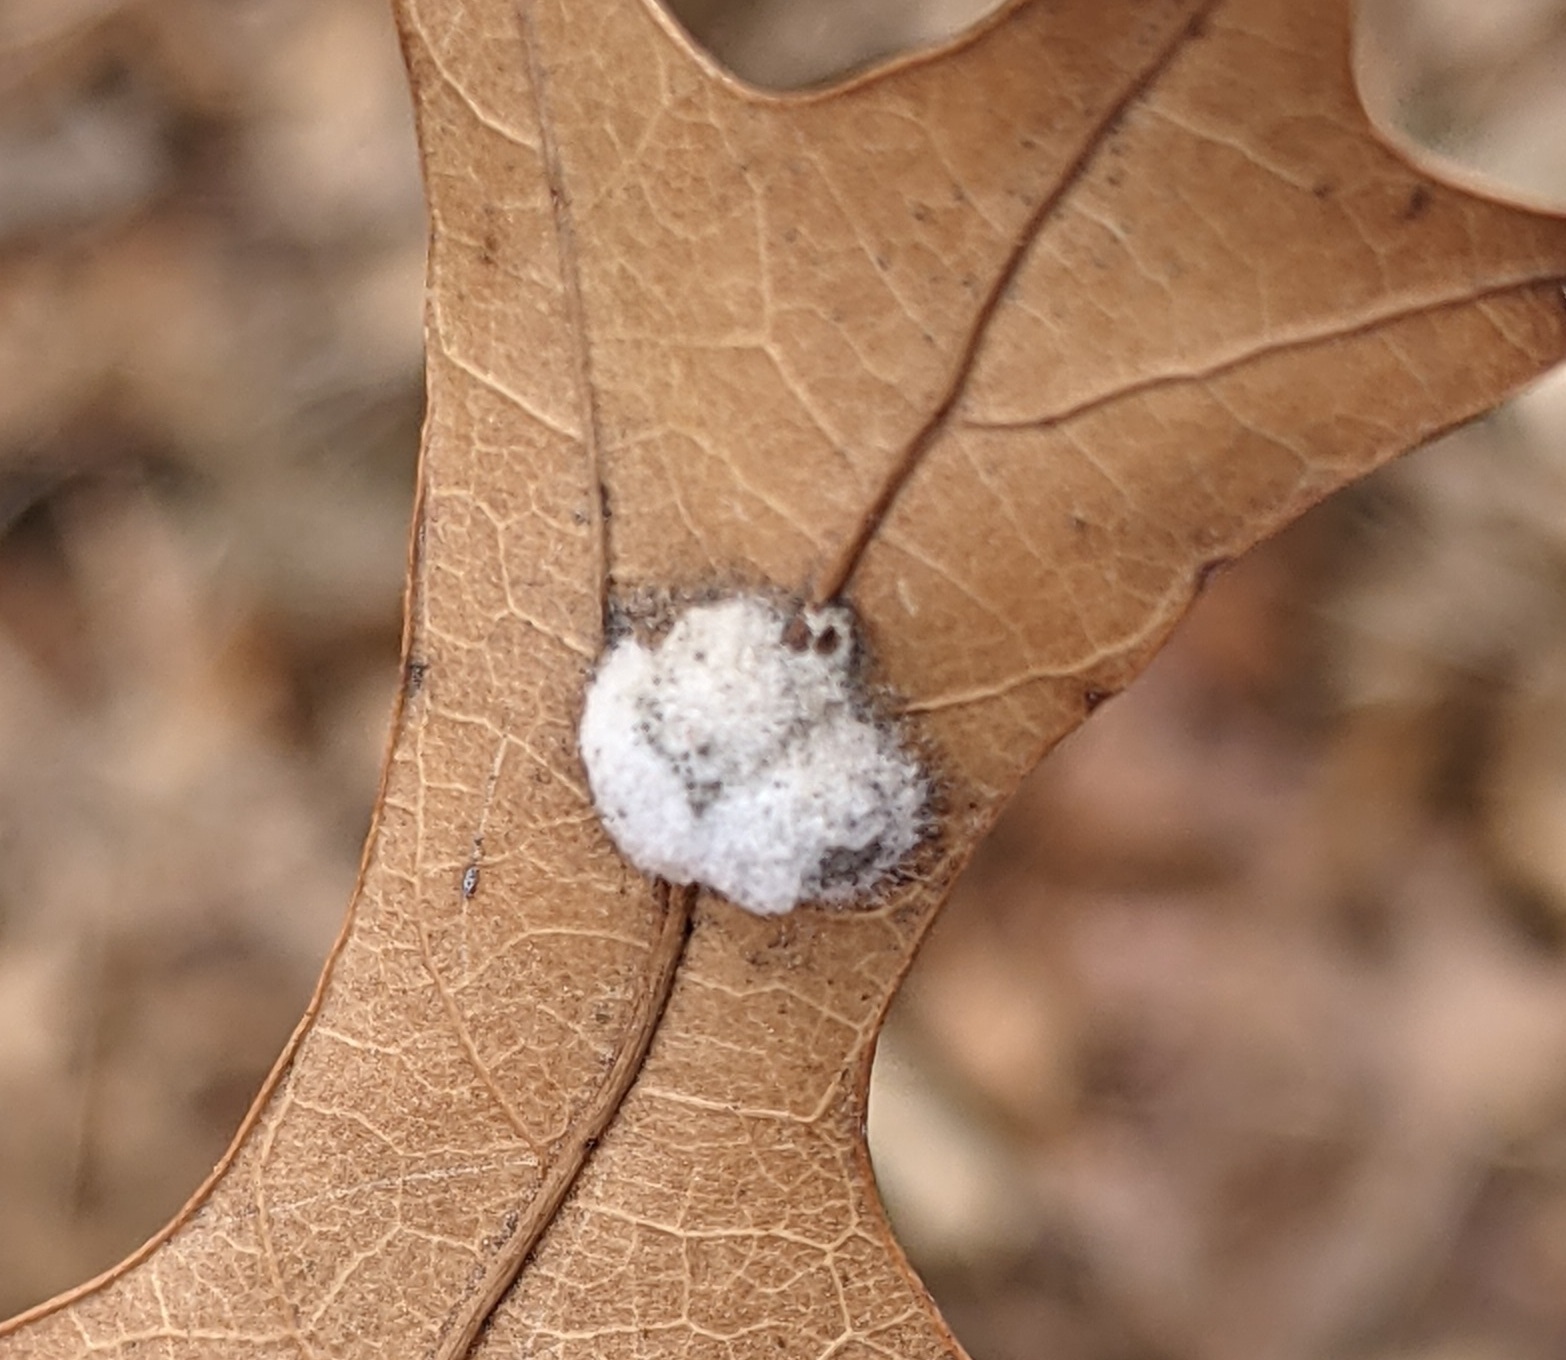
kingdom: Animalia
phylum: Arthropoda
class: Insecta
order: Hymenoptera
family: Cynipidae
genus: Callirhytis
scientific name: Callirhytis
